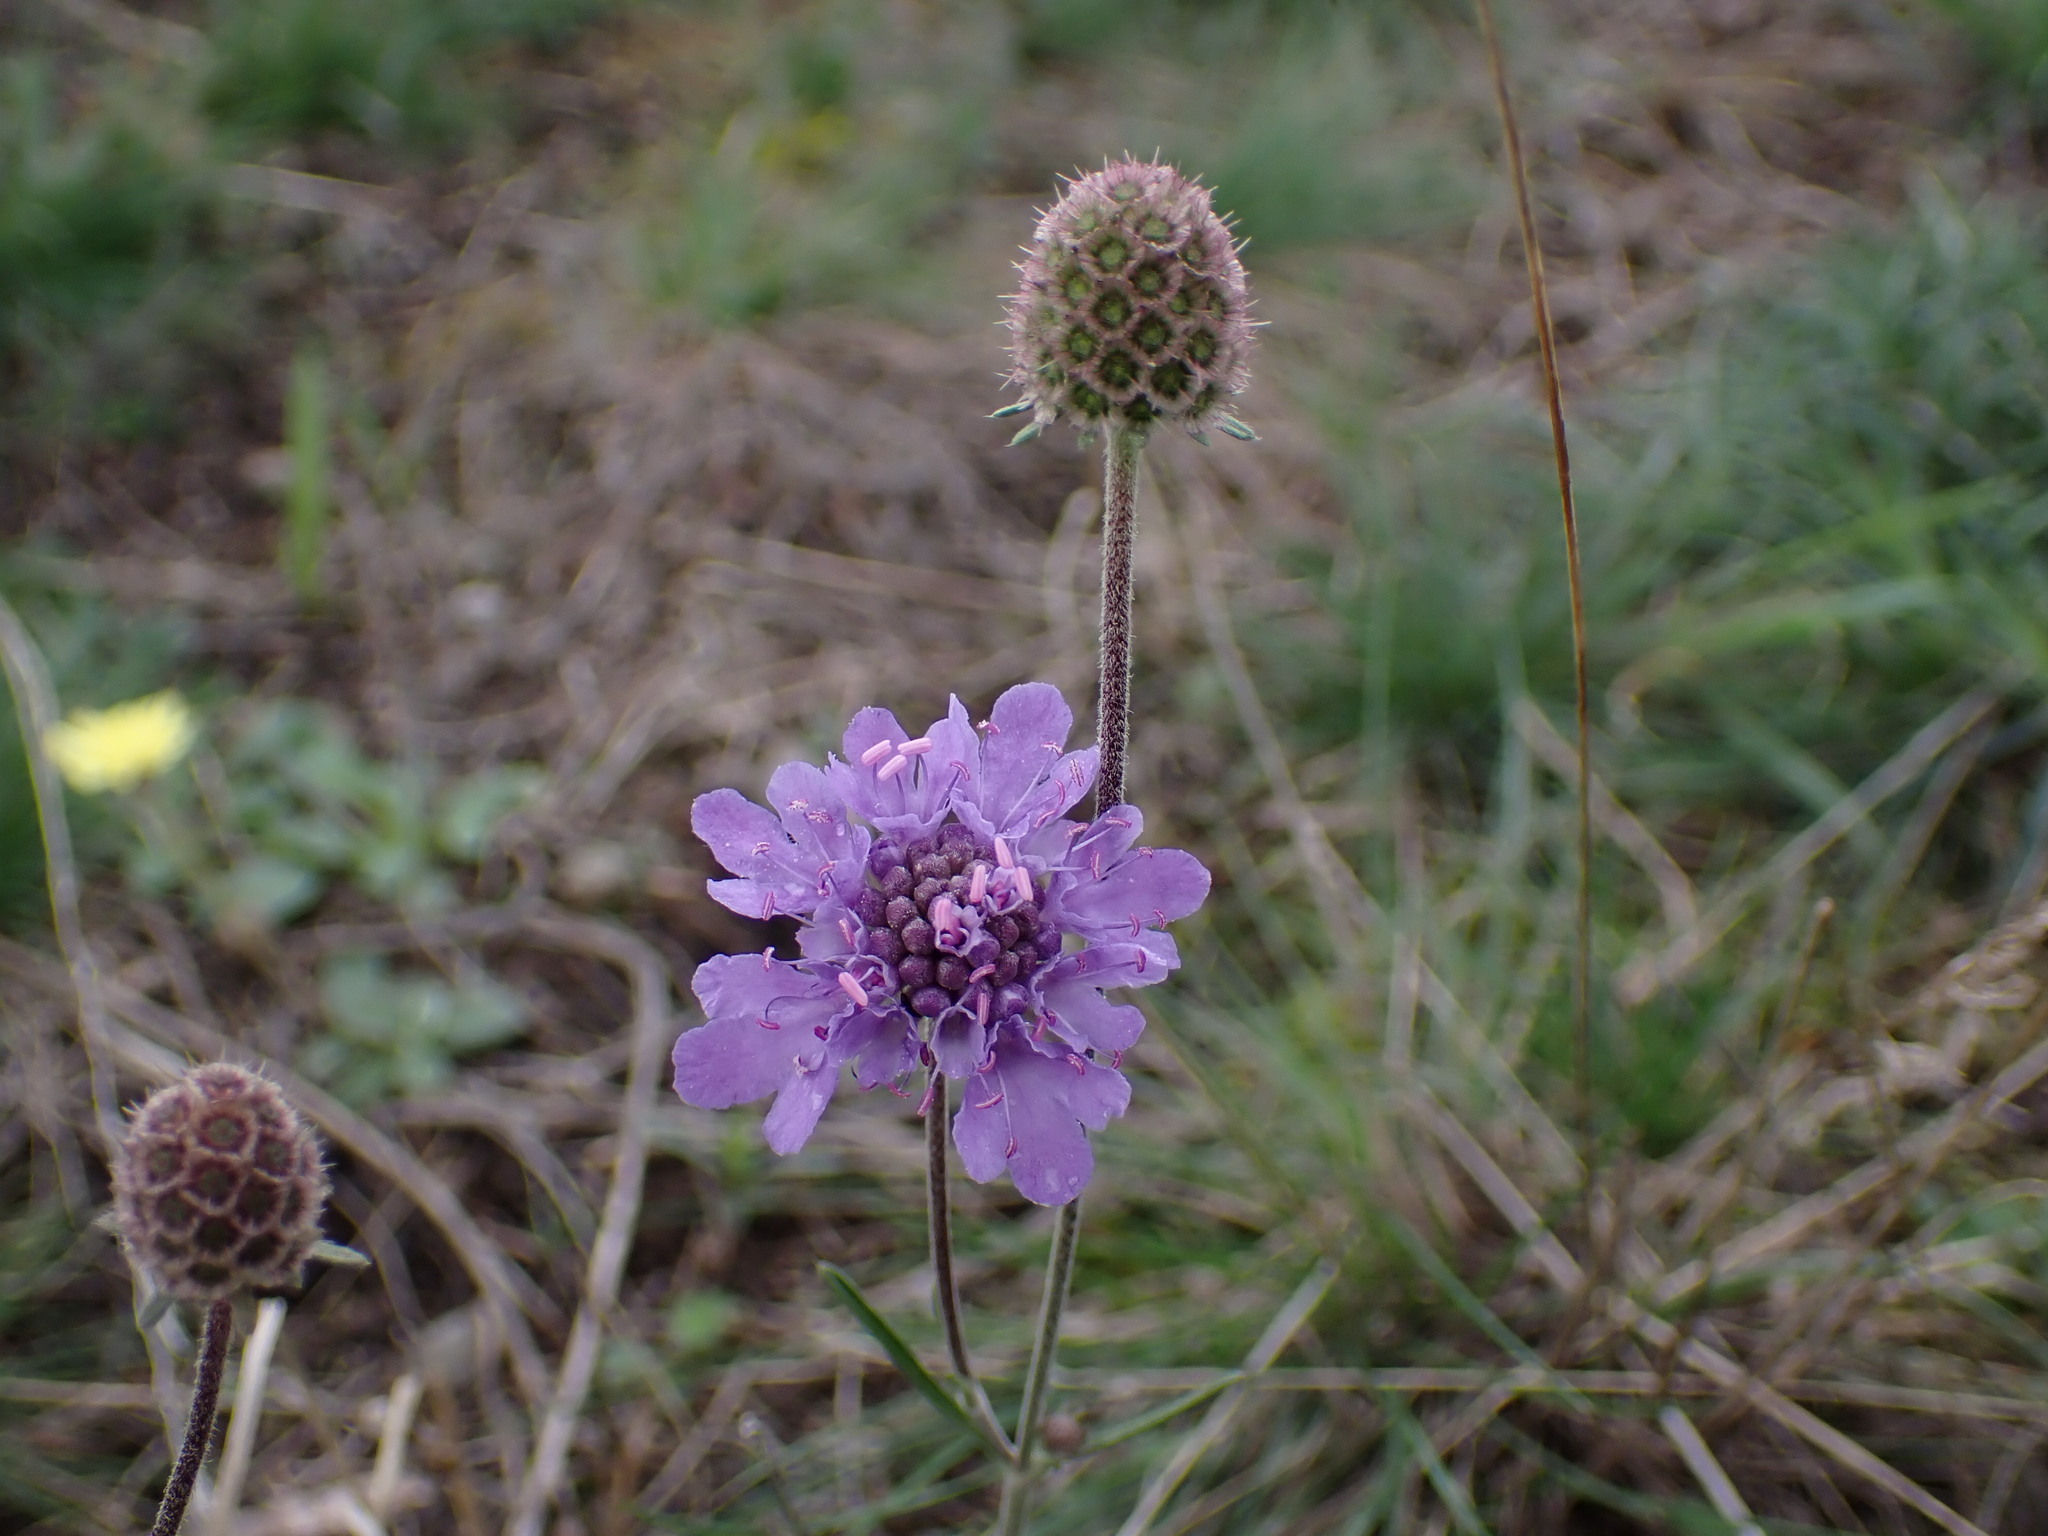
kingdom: Plantae
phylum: Tracheophyta
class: Magnoliopsida
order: Dipsacales
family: Caprifoliaceae
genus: Scabiosa
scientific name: Scabiosa canescens
